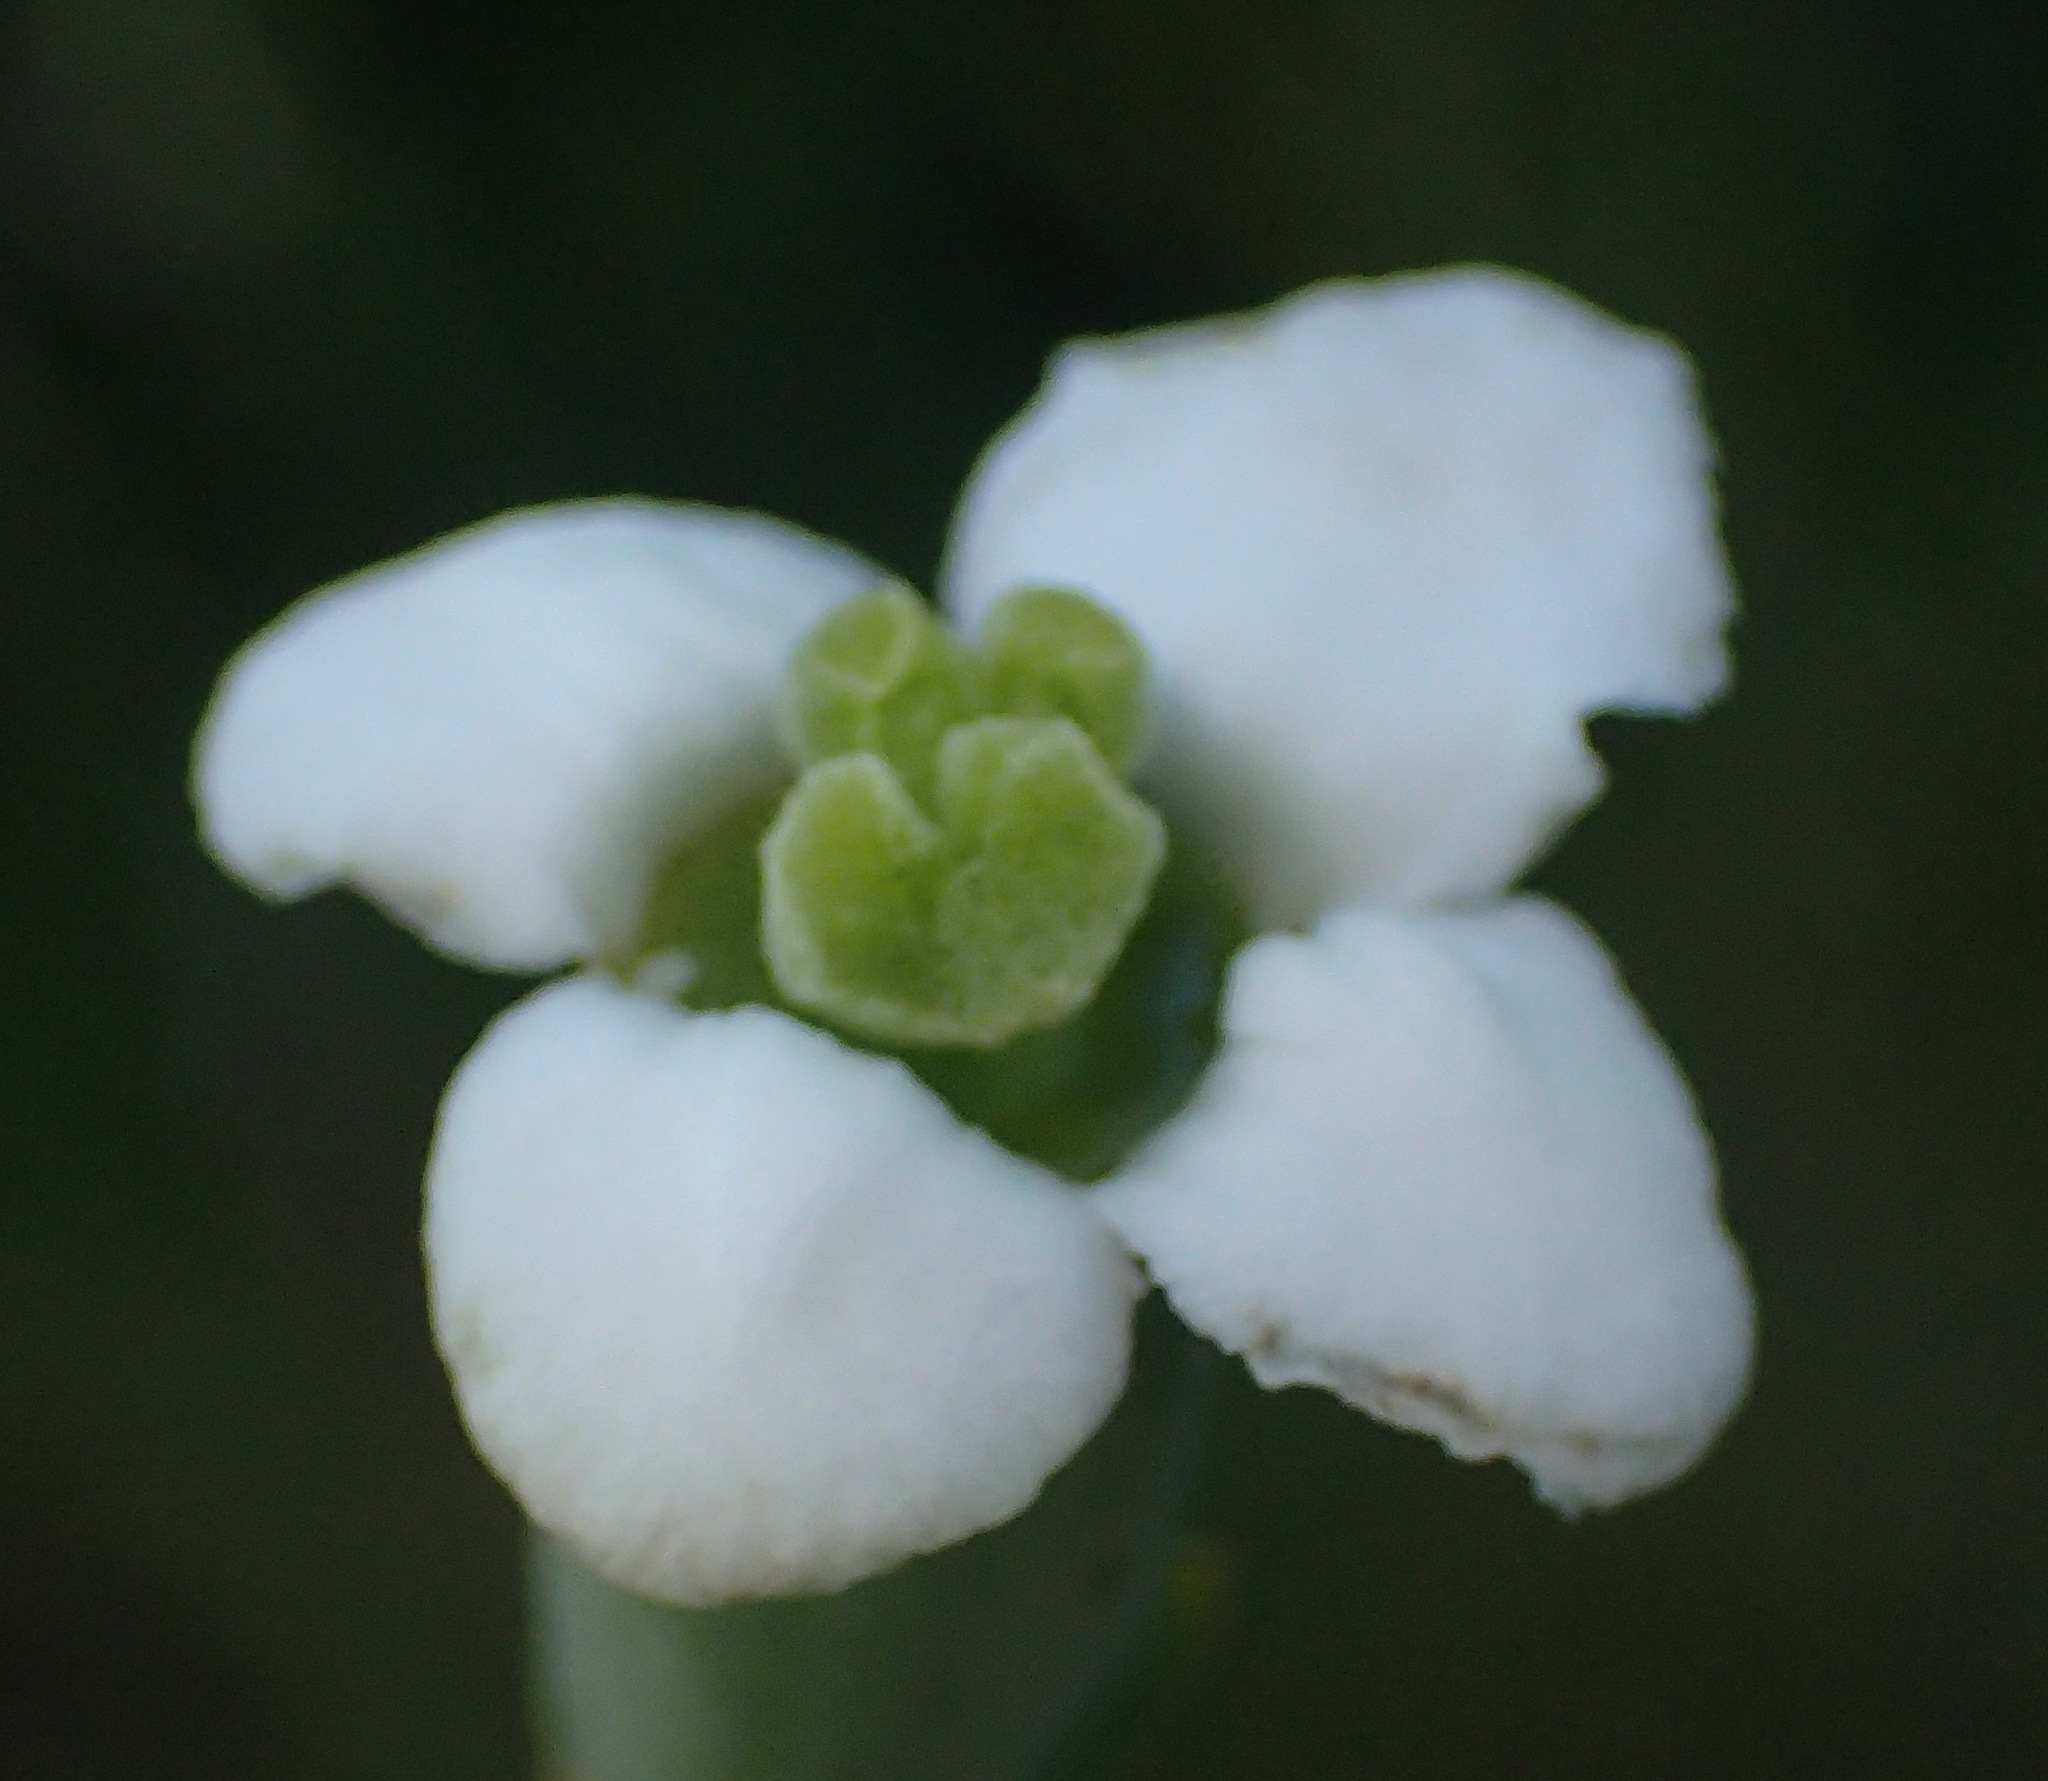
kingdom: Plantae
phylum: Tracheophyta
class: Magnoliopsida
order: Solanales
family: Montiniaceae
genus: Montinia
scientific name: Montinia caryophyllacea
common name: Wild clove-bush
